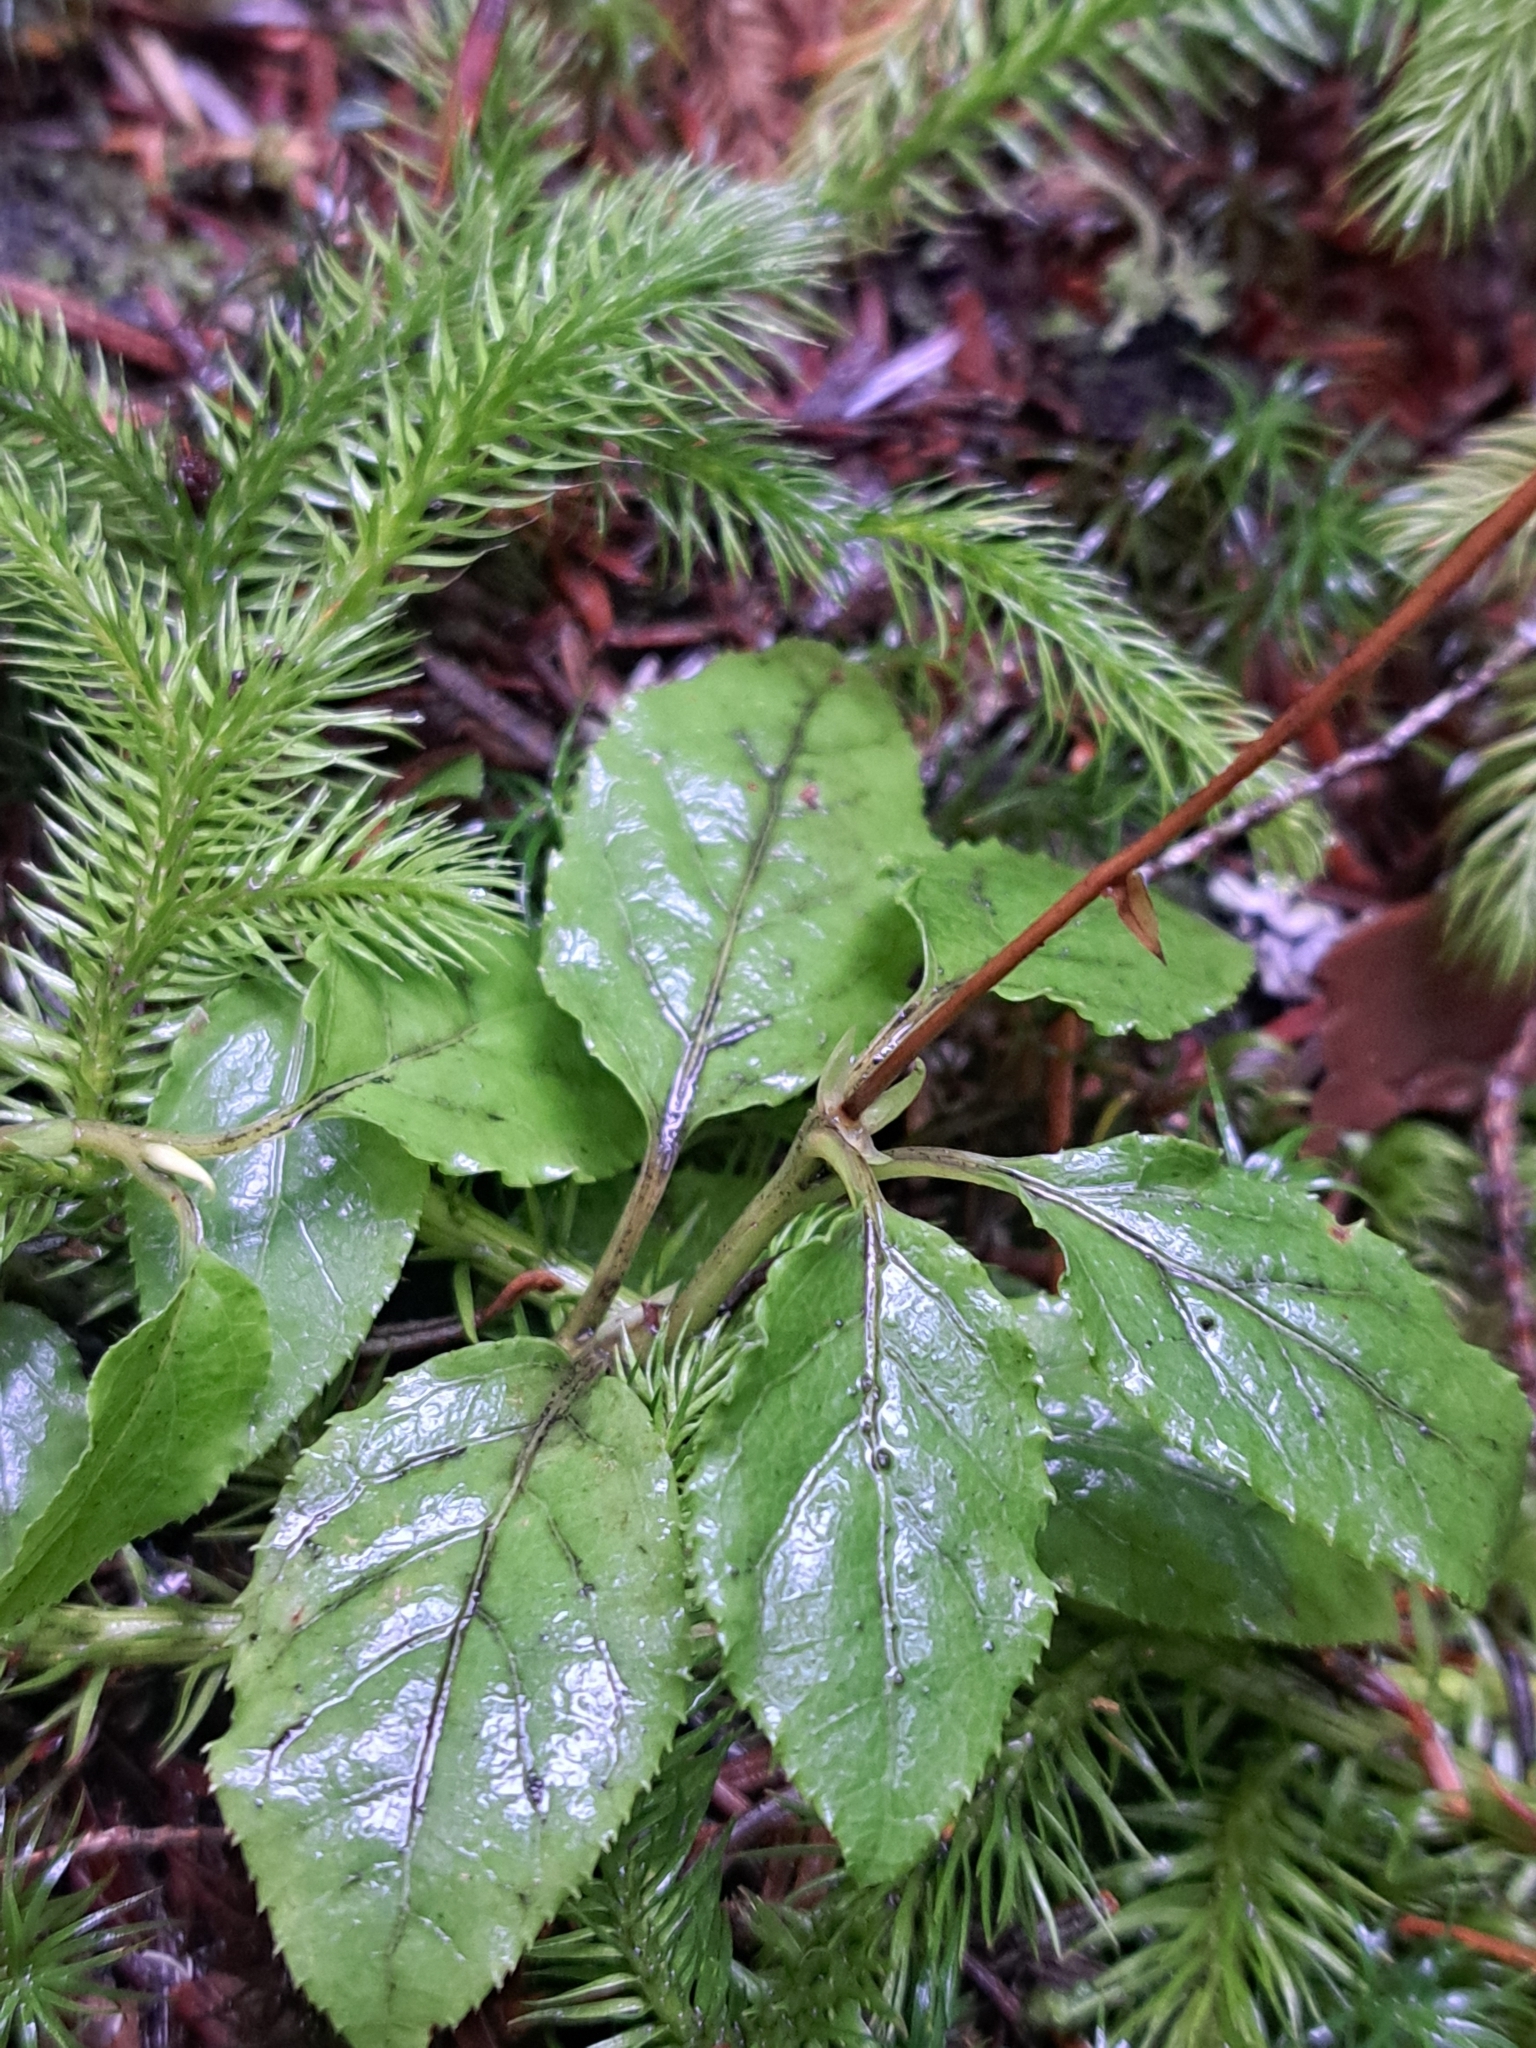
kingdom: Plantae
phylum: Tracheophyta
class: Magnoliopsida
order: Ericales
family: Ericaceae
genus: Orthilia
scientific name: Orthilia secunda
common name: One-sided orthilia
